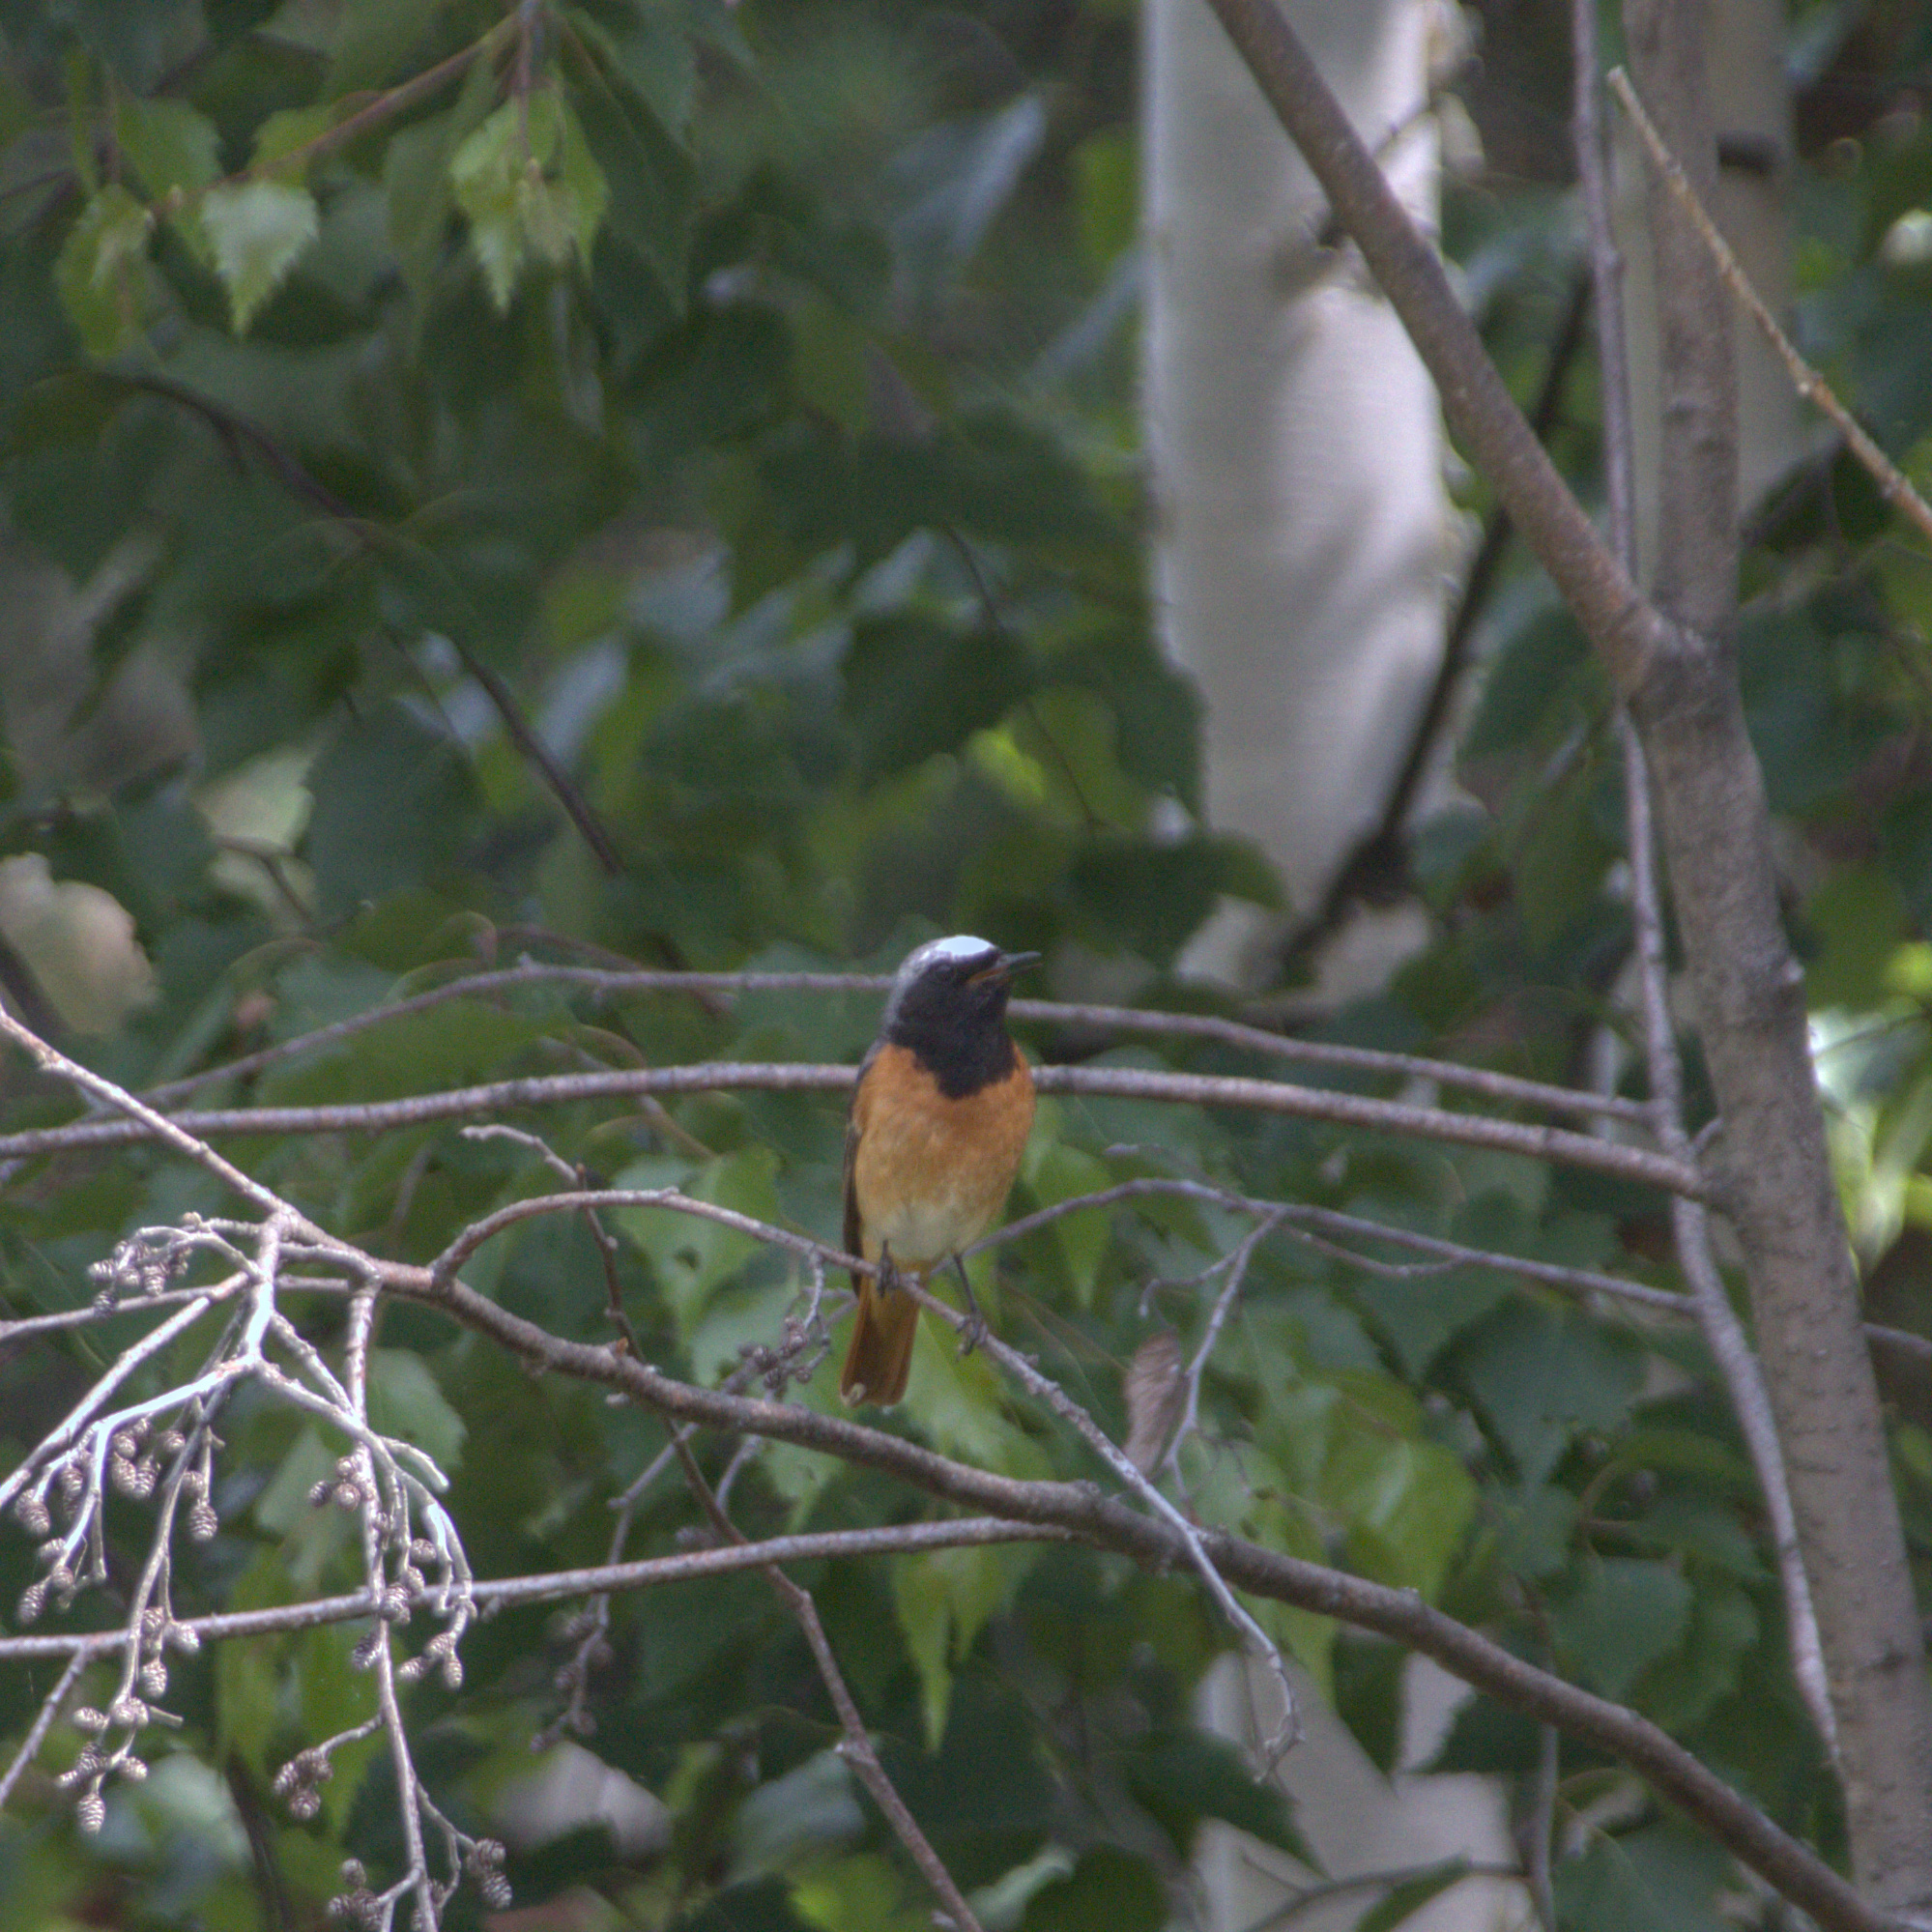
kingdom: Animalia
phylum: Chordata
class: Aves
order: Passeriformes
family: Muscicapidae
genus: Phoenicurus
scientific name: Phoenicurus phoenicurus
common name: Common redstart
